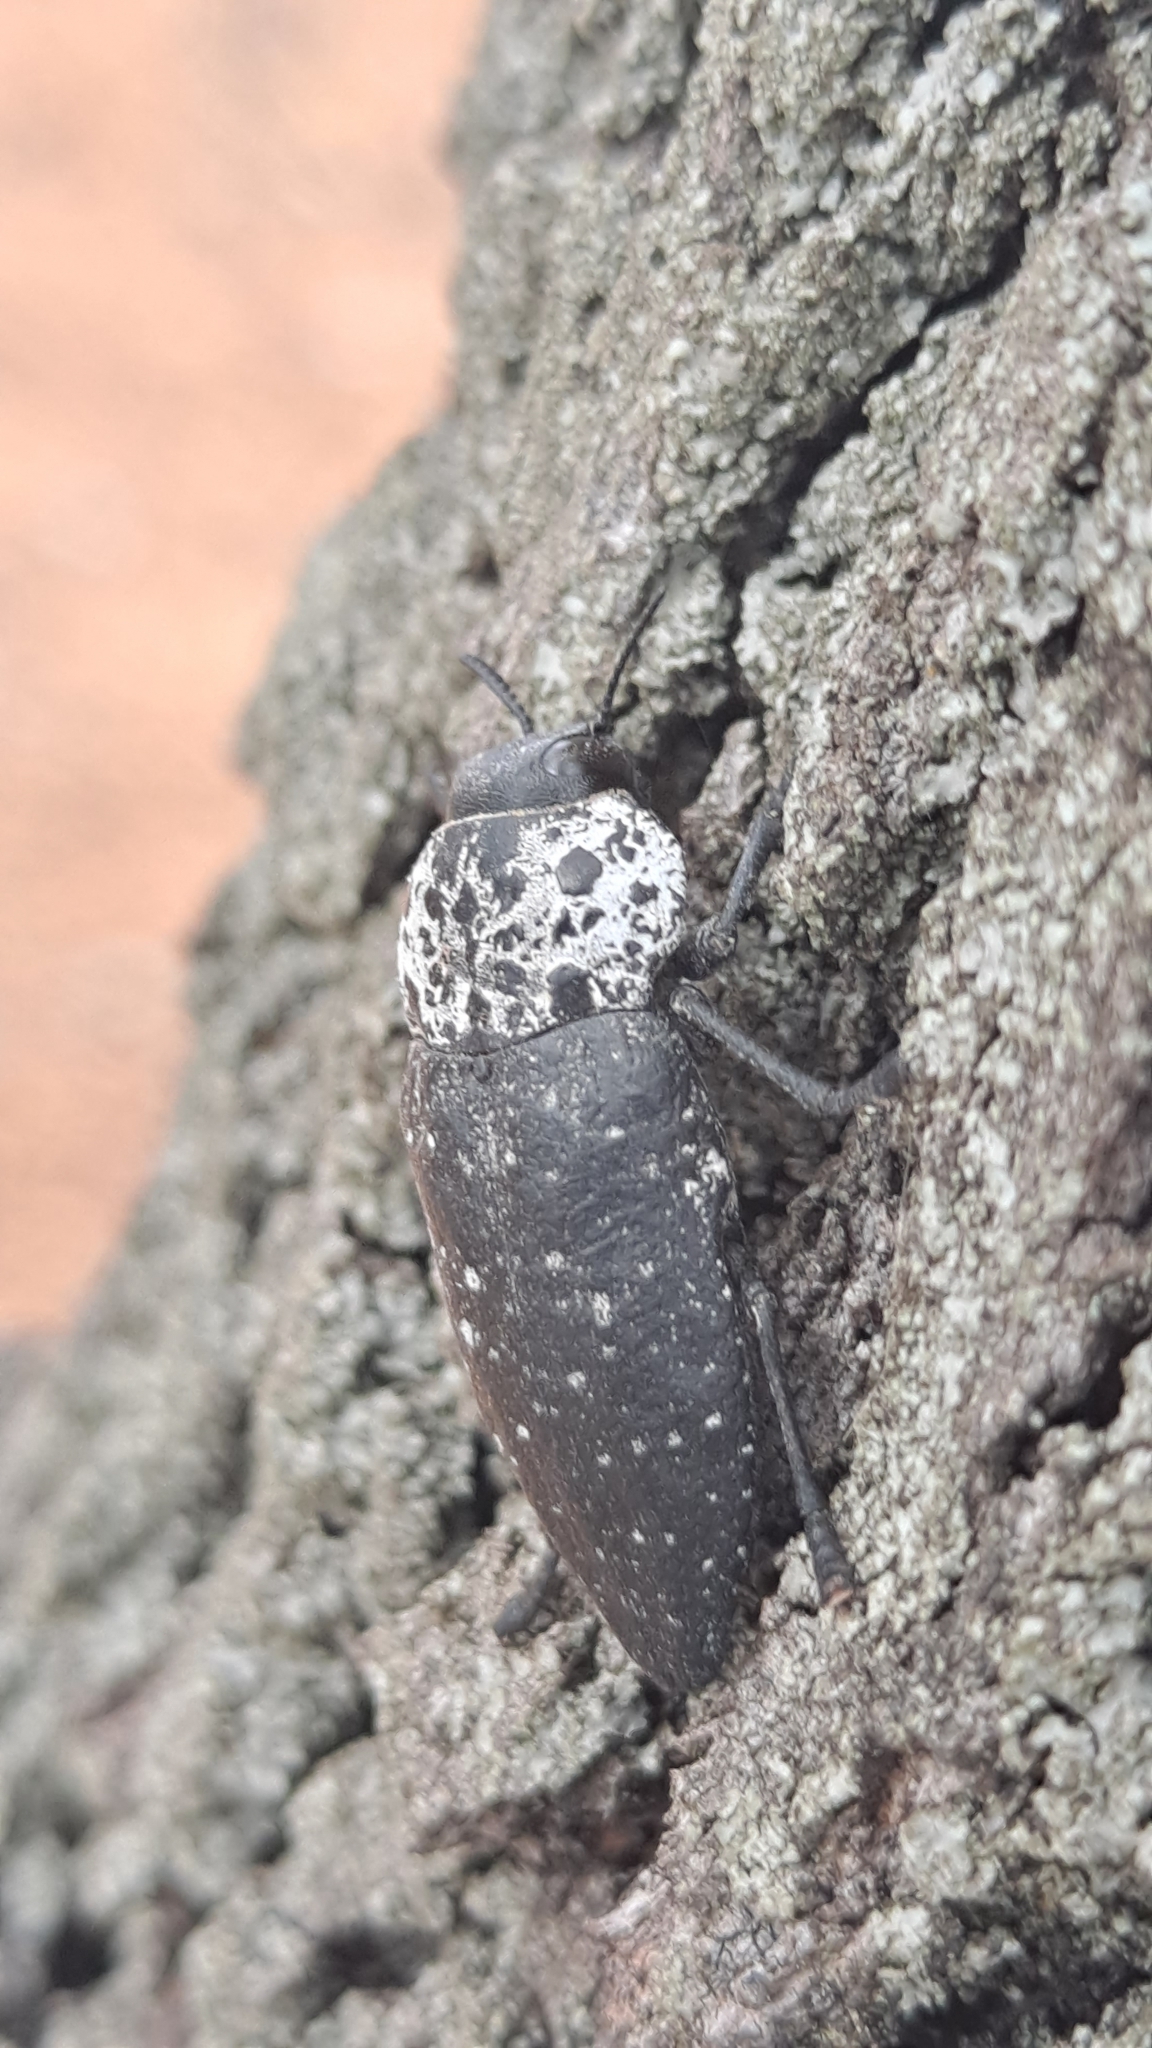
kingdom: Animalia
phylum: Arthropoda
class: Insecta
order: Coleoptera
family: Buprestidae
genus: Capnodis
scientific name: Capnodis tenebrionis
